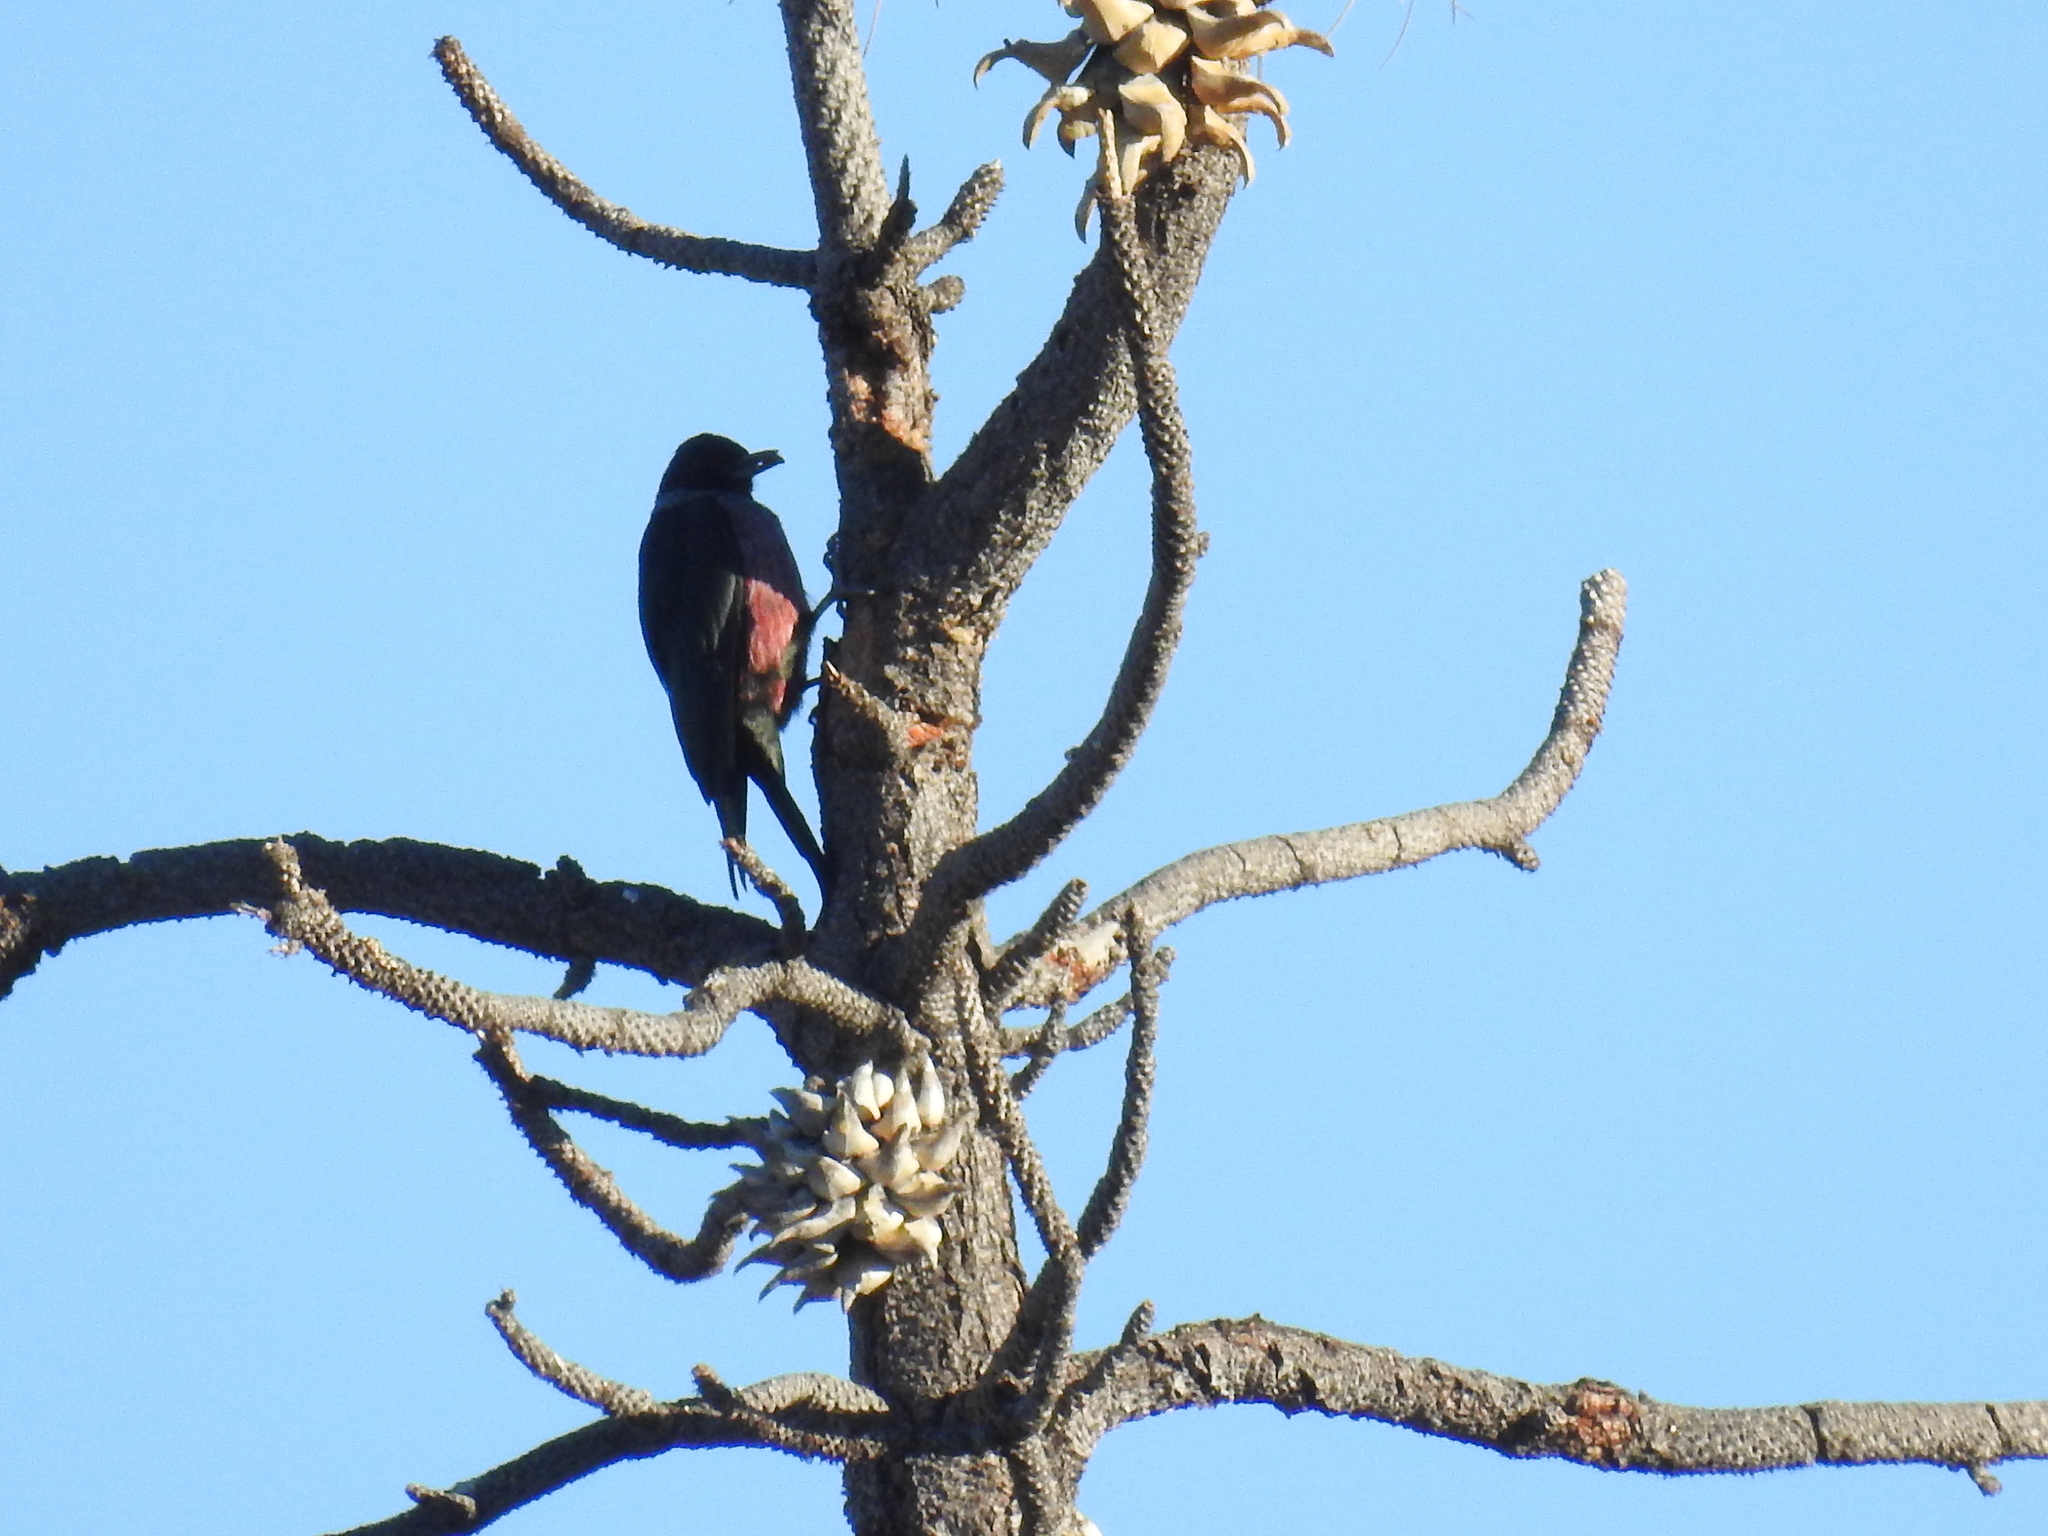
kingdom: Animalia
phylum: Chordata
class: Aves
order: Piciformes
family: Picidae
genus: Melanerpes
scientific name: Melanerpes lewis
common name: Lewis's woodpecker
